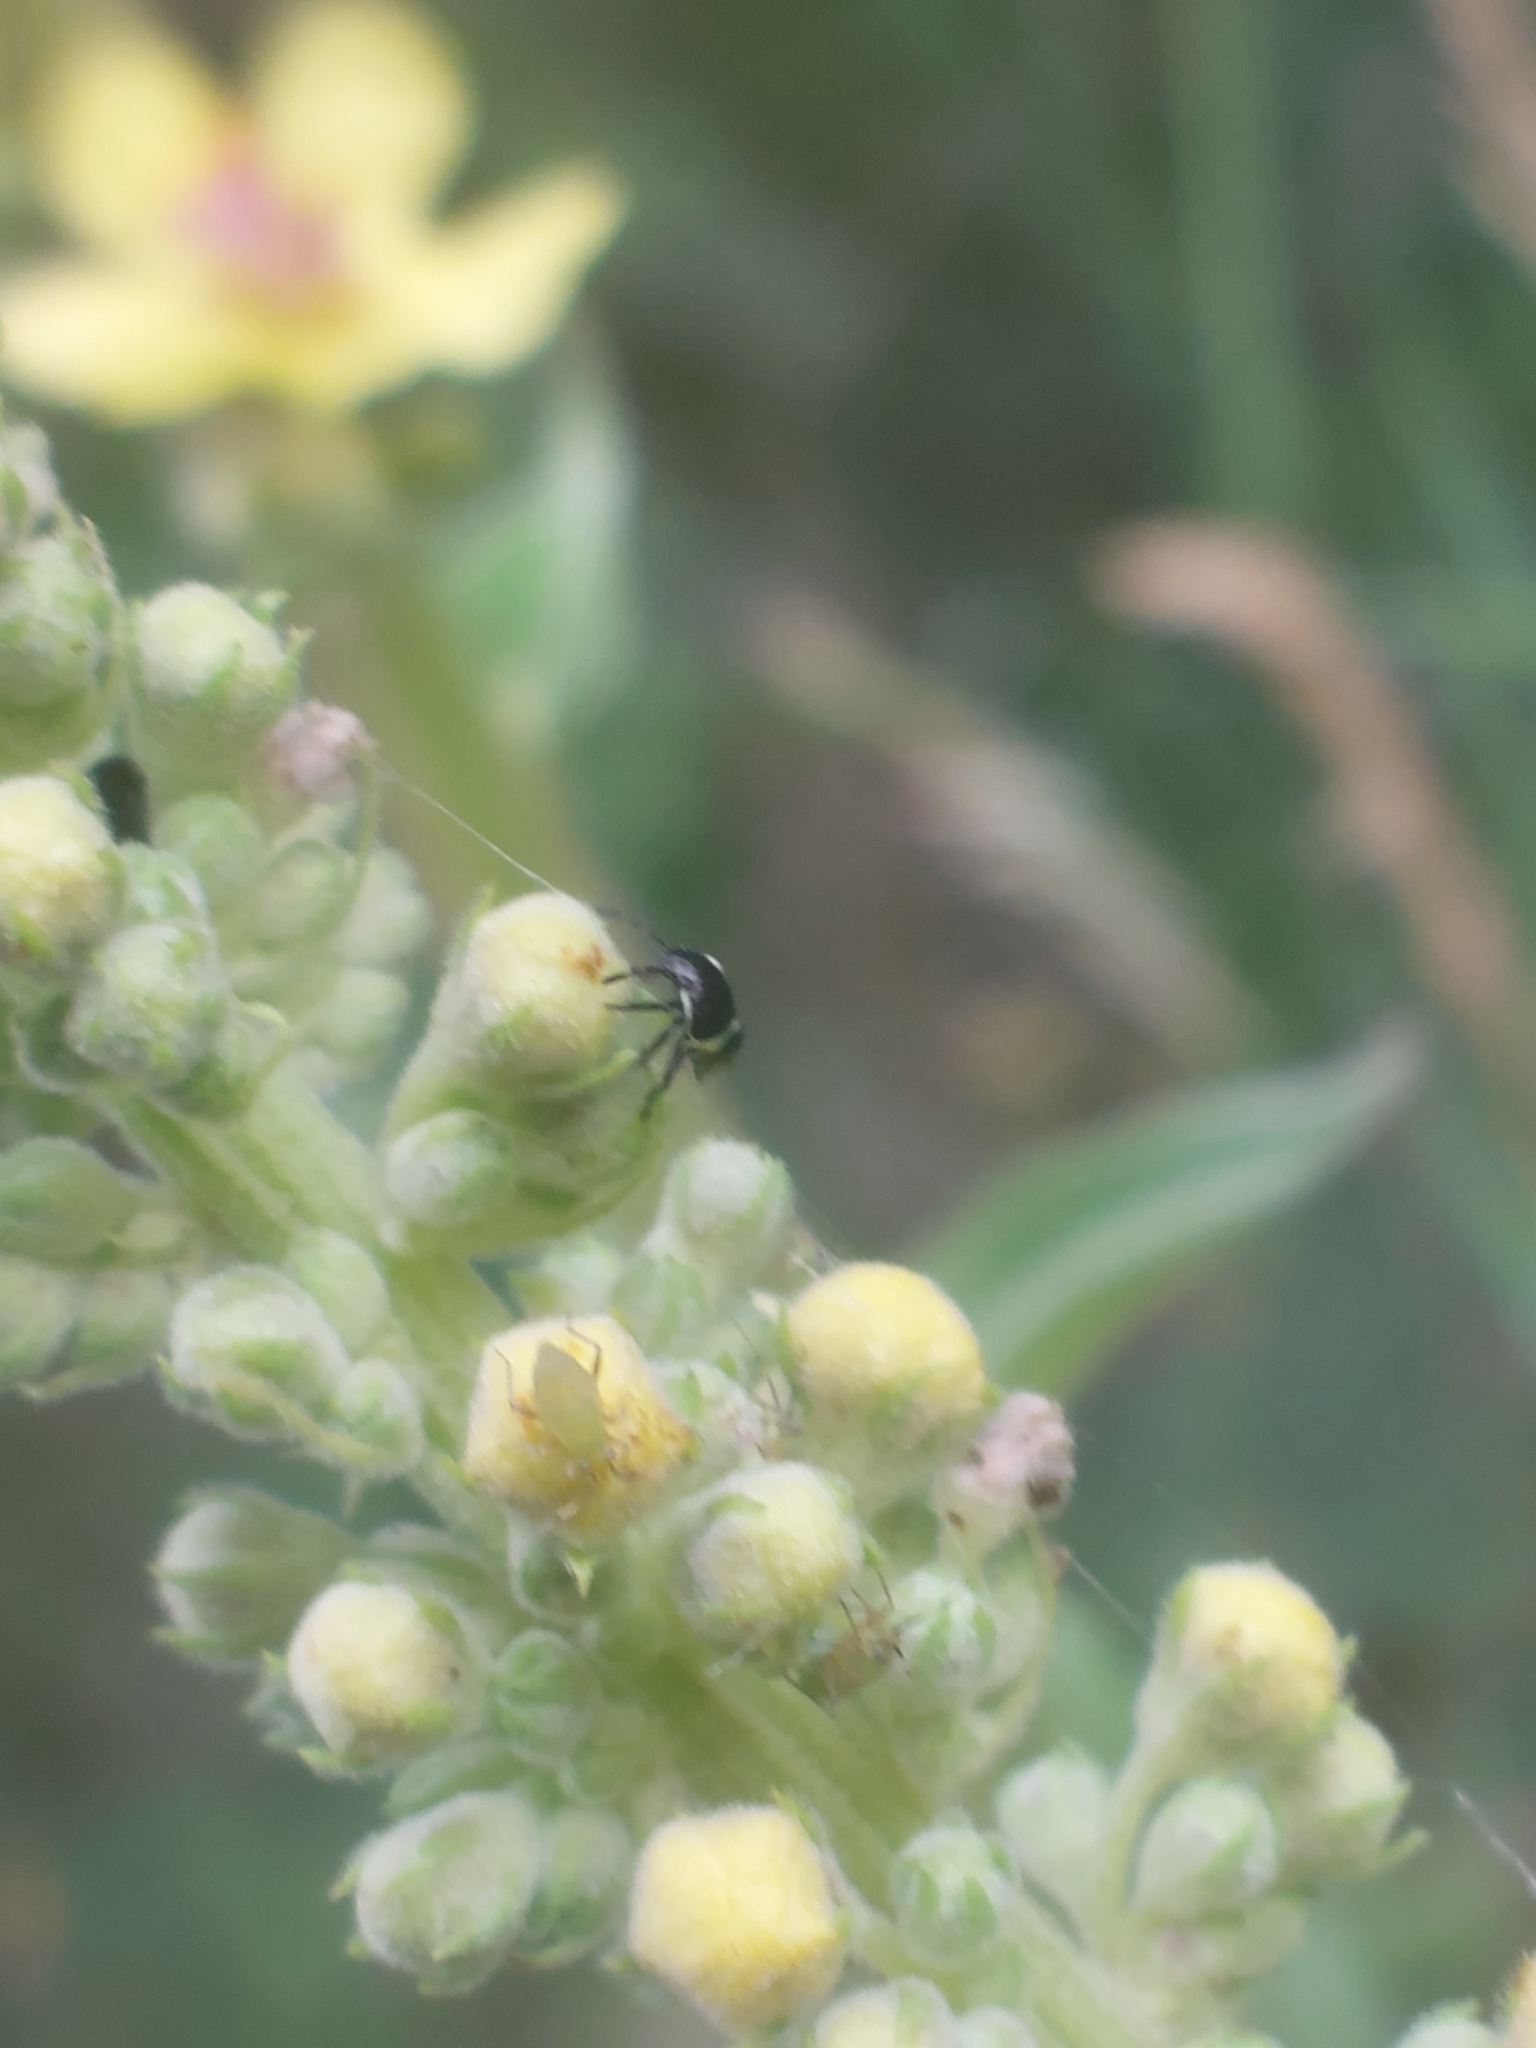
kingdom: Animalia
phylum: Arthropoda
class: Insecta
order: Hemiptera
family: Pentatomidae
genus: Palomena
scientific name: Palomena prasina
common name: Green shieldbug
